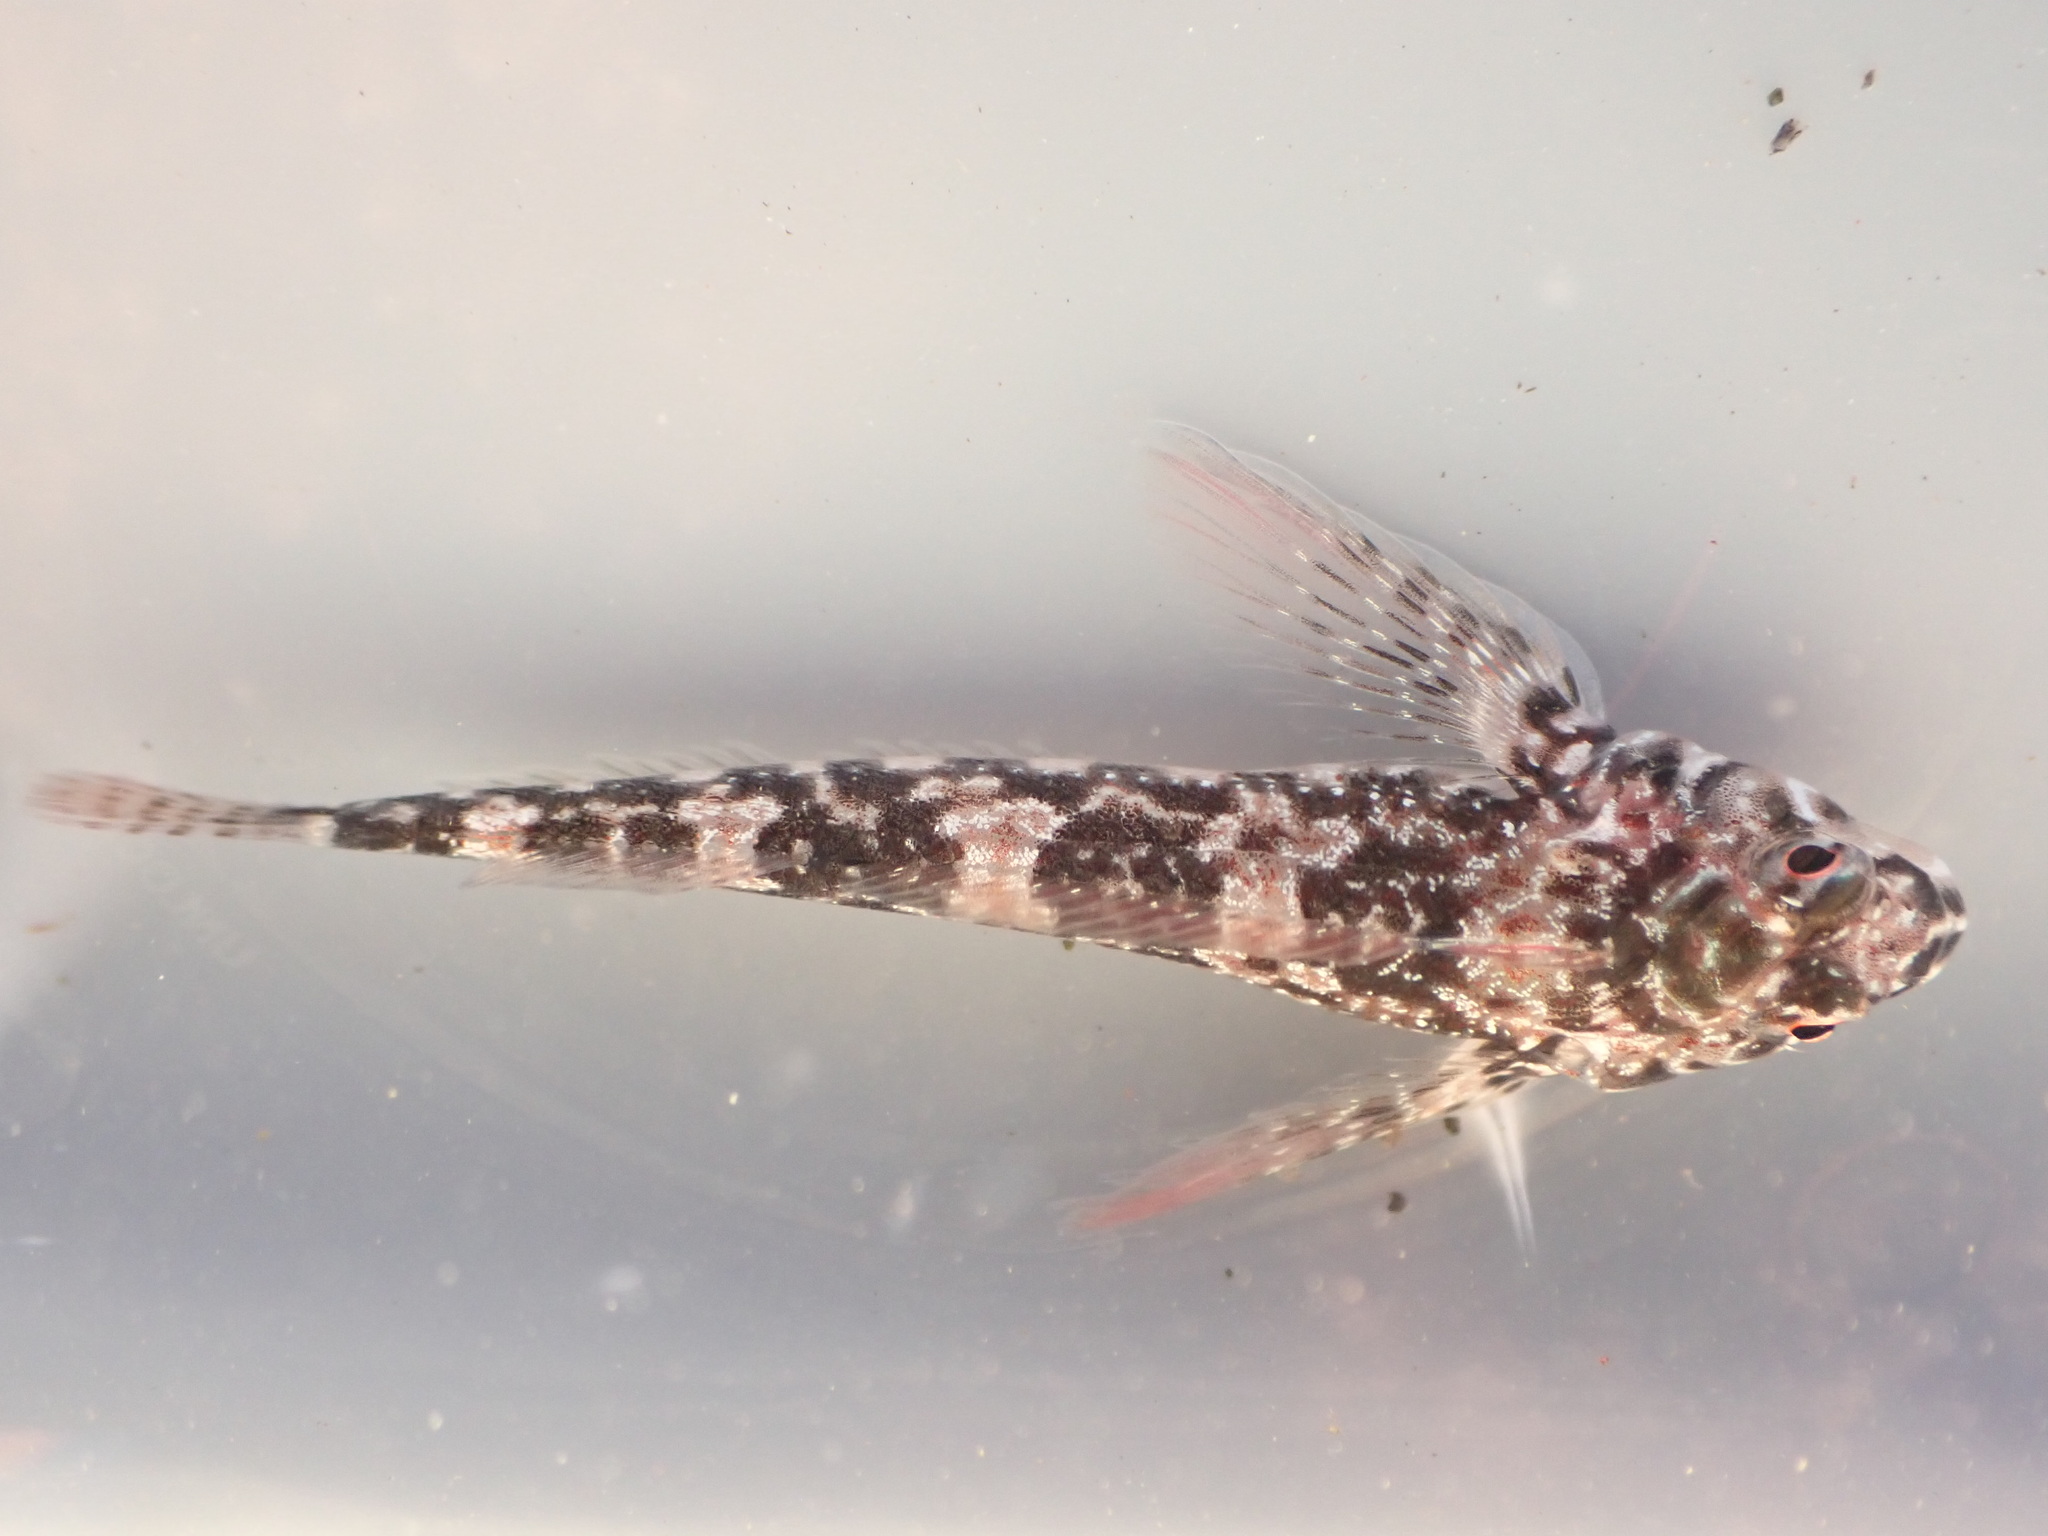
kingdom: Animalia
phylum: Chordata
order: Perciformes
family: Tripterygiidae
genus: Bellapiscis
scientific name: Bellapiscis lesleyae
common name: Mottled twister
